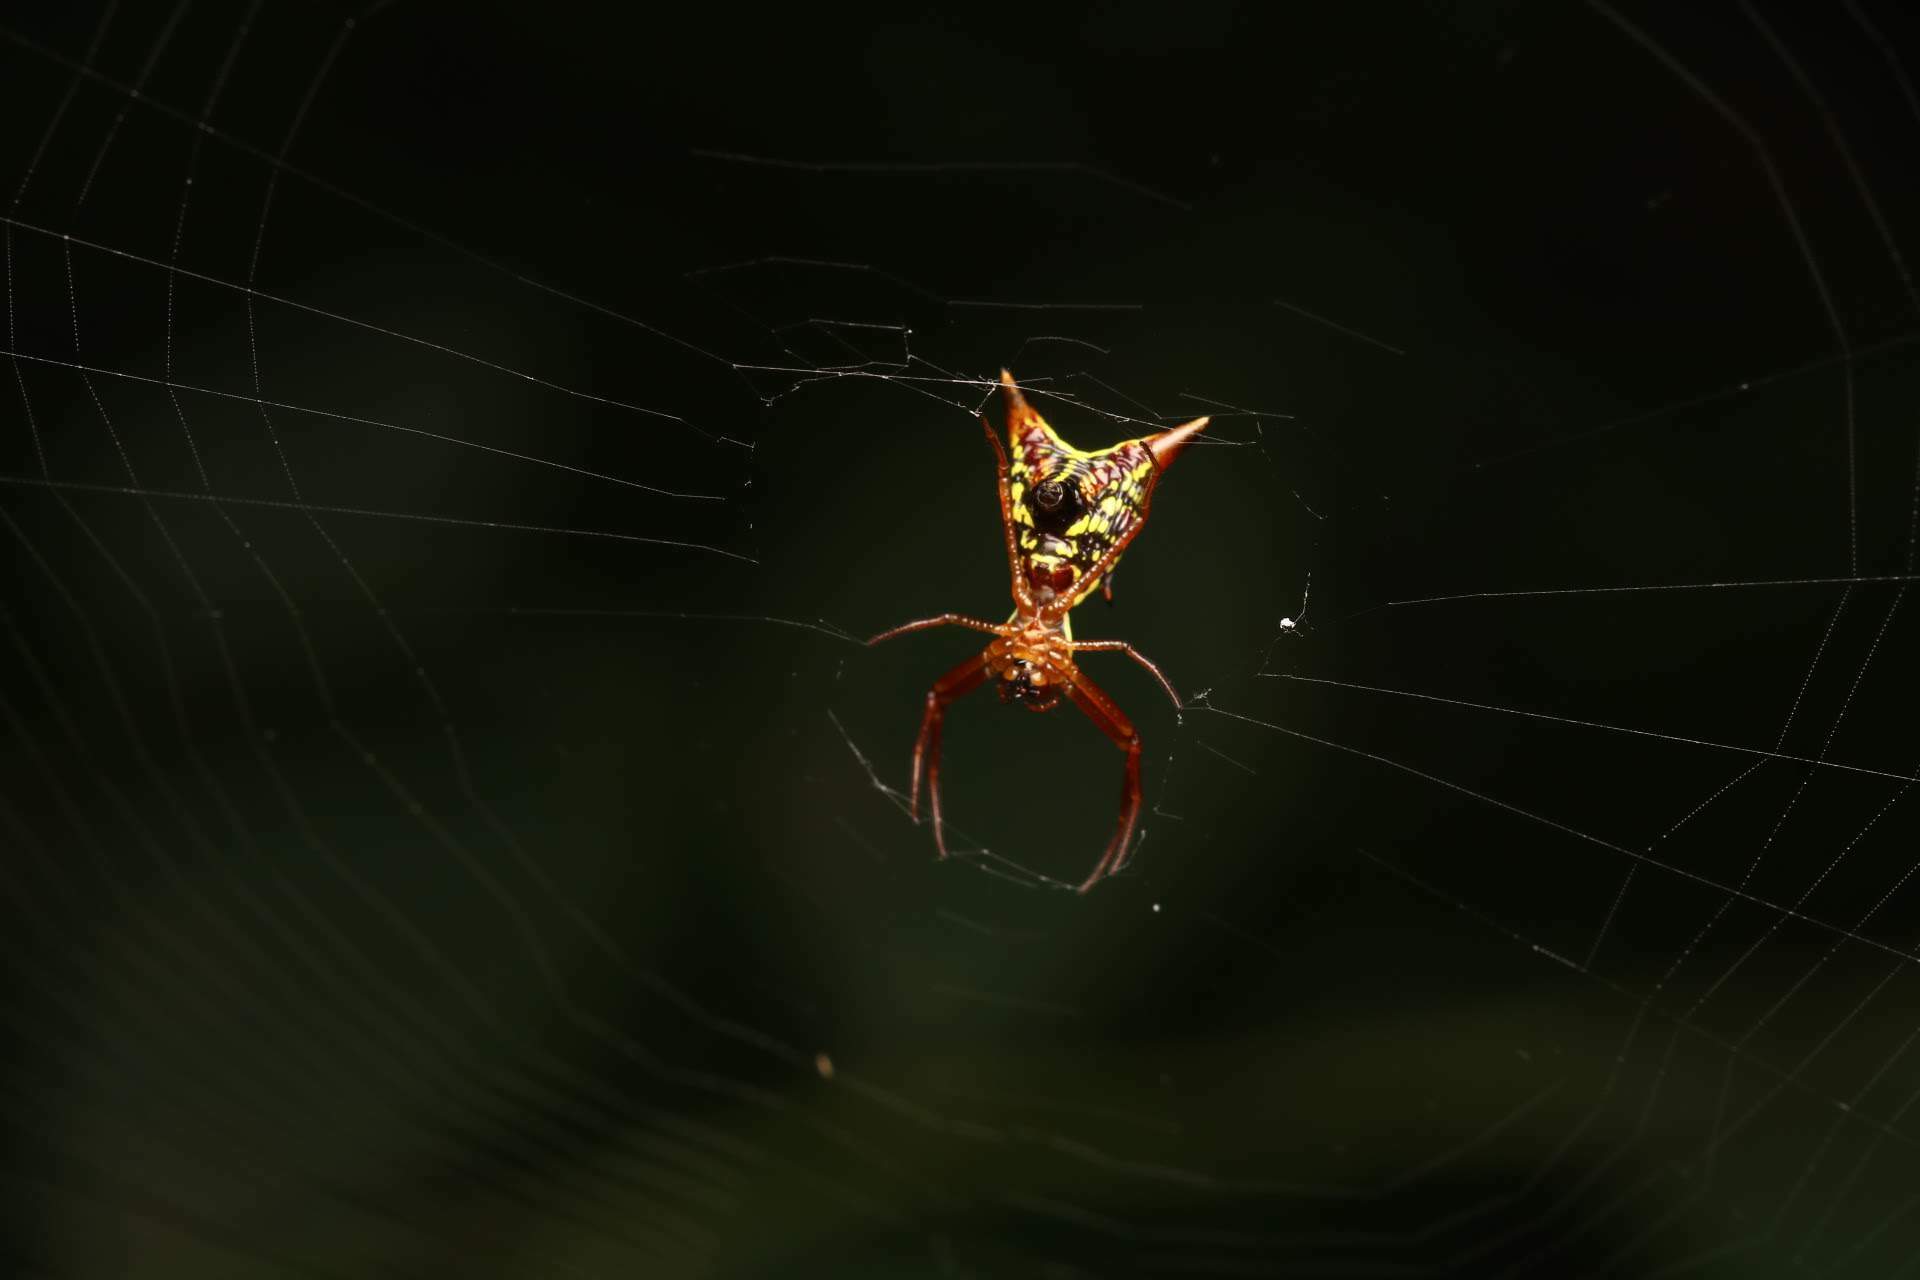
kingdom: Animalia
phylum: Arthropoda
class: Arachnida
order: Araneae
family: Araneidae
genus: Micrathena
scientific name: Micrathena sagittata
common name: Orb weavers
